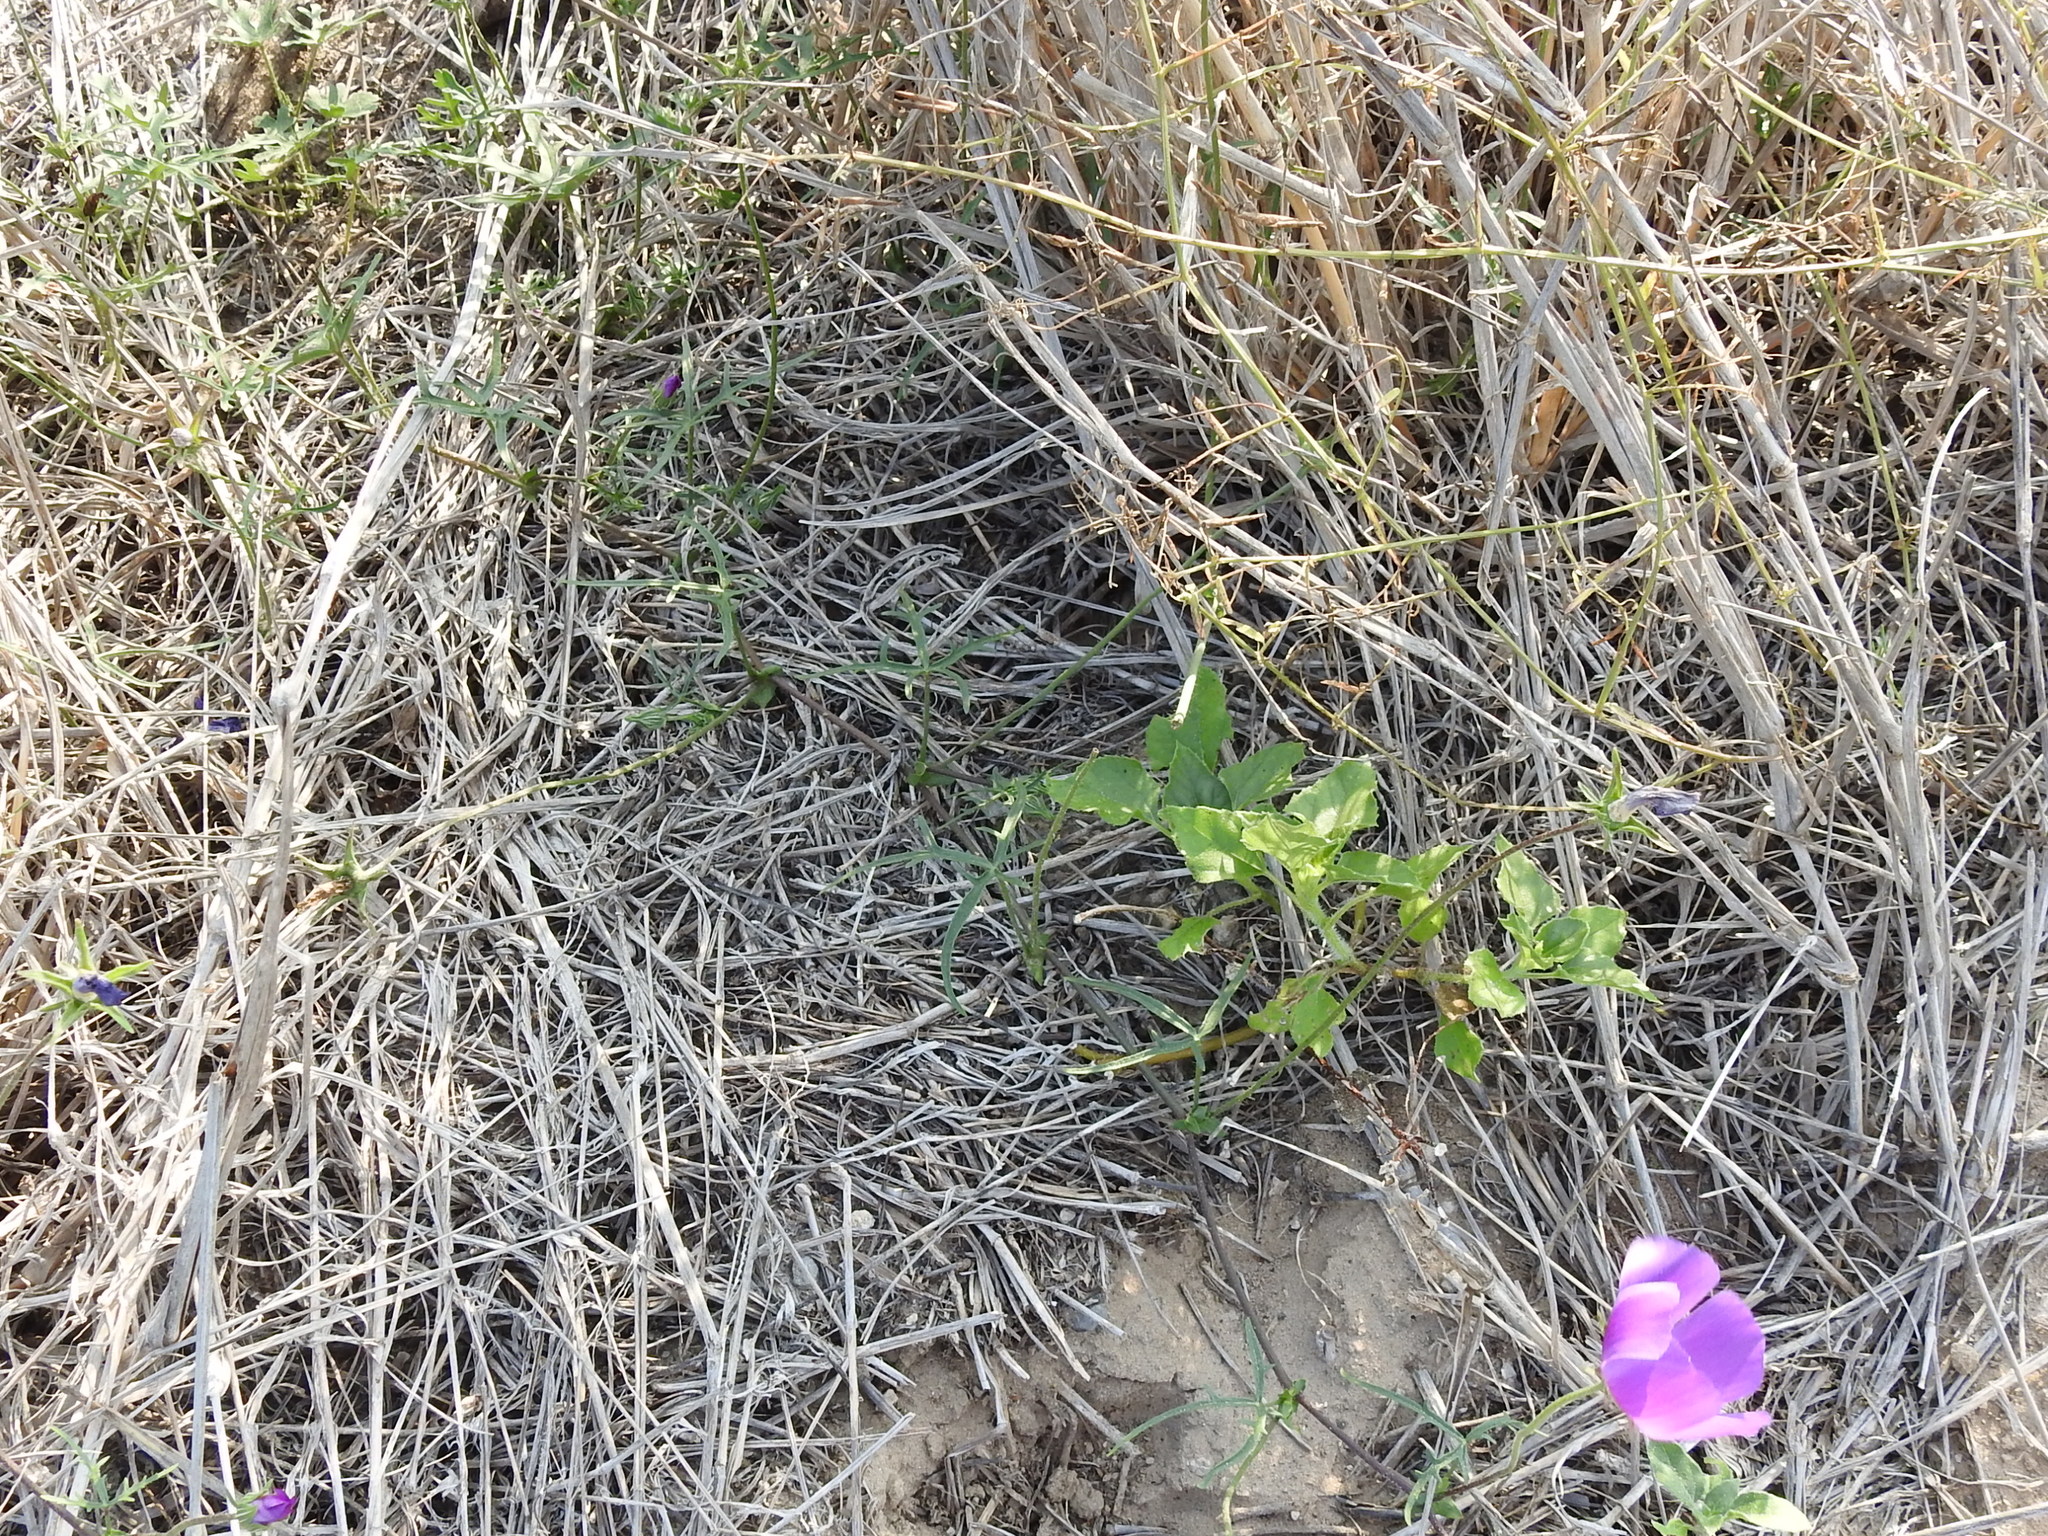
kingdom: Plantae
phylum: Tracheophyta
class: Magnoliopsida
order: Malvales
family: Malvaceae
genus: Callirhoe
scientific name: Callirhoe involucrata
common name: Purple poppy-mallow
